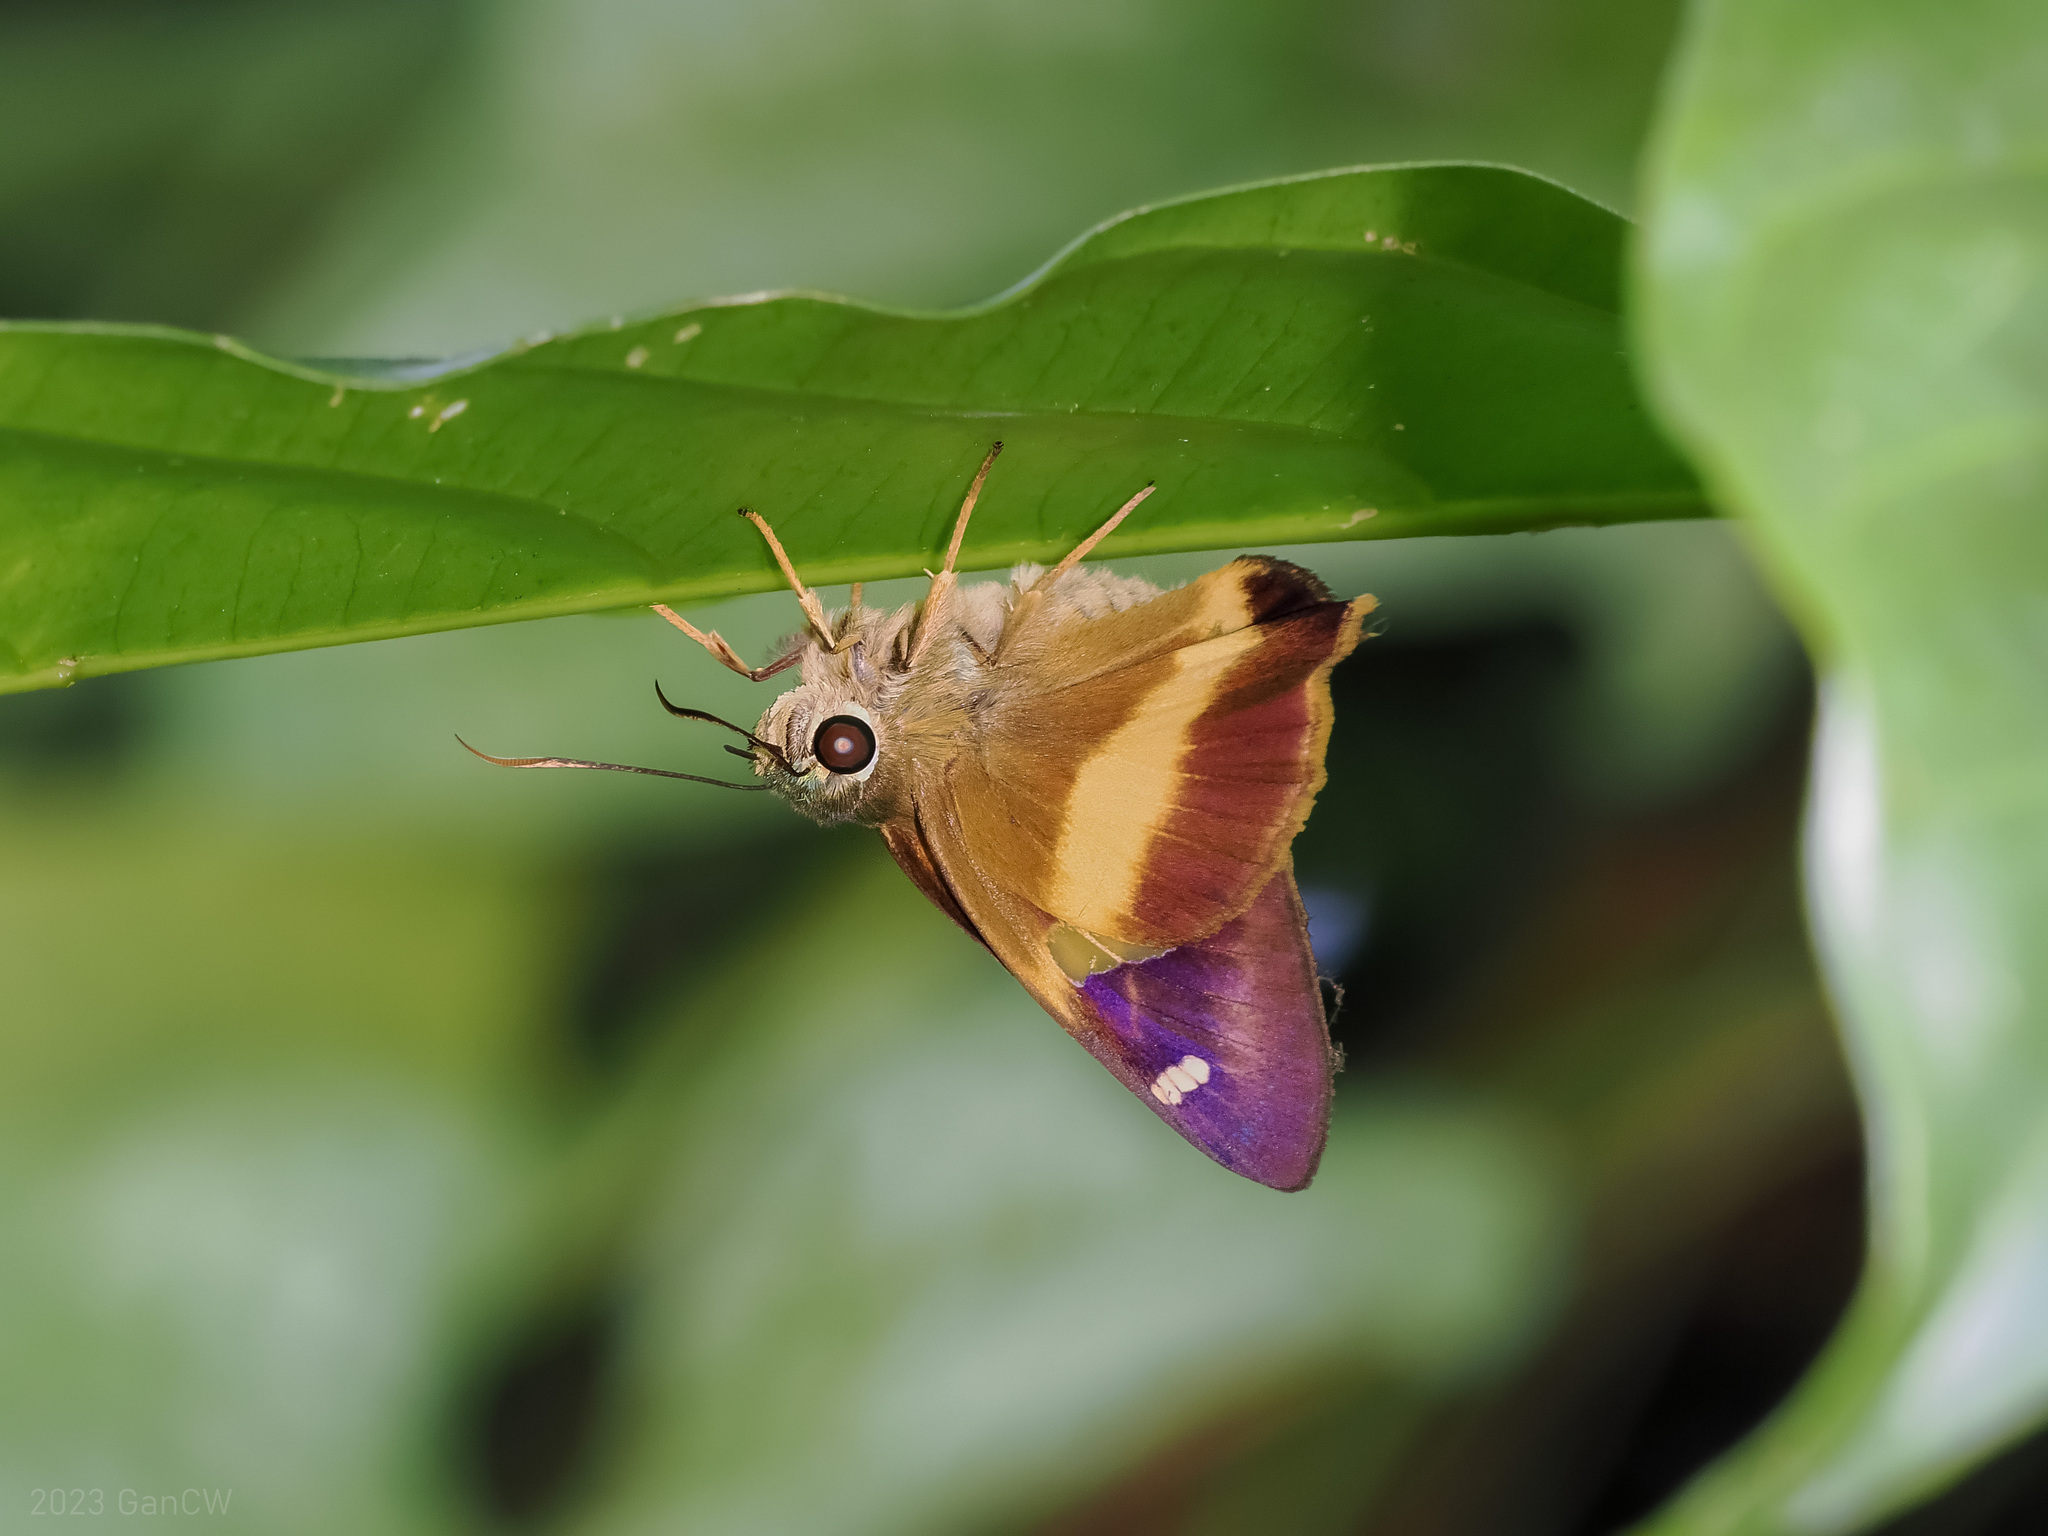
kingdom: Animalia
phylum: Arthropoda
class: Insecta
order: Lepidoptera
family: Hesperiidae
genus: Hasora
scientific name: Hasora schoenherr
